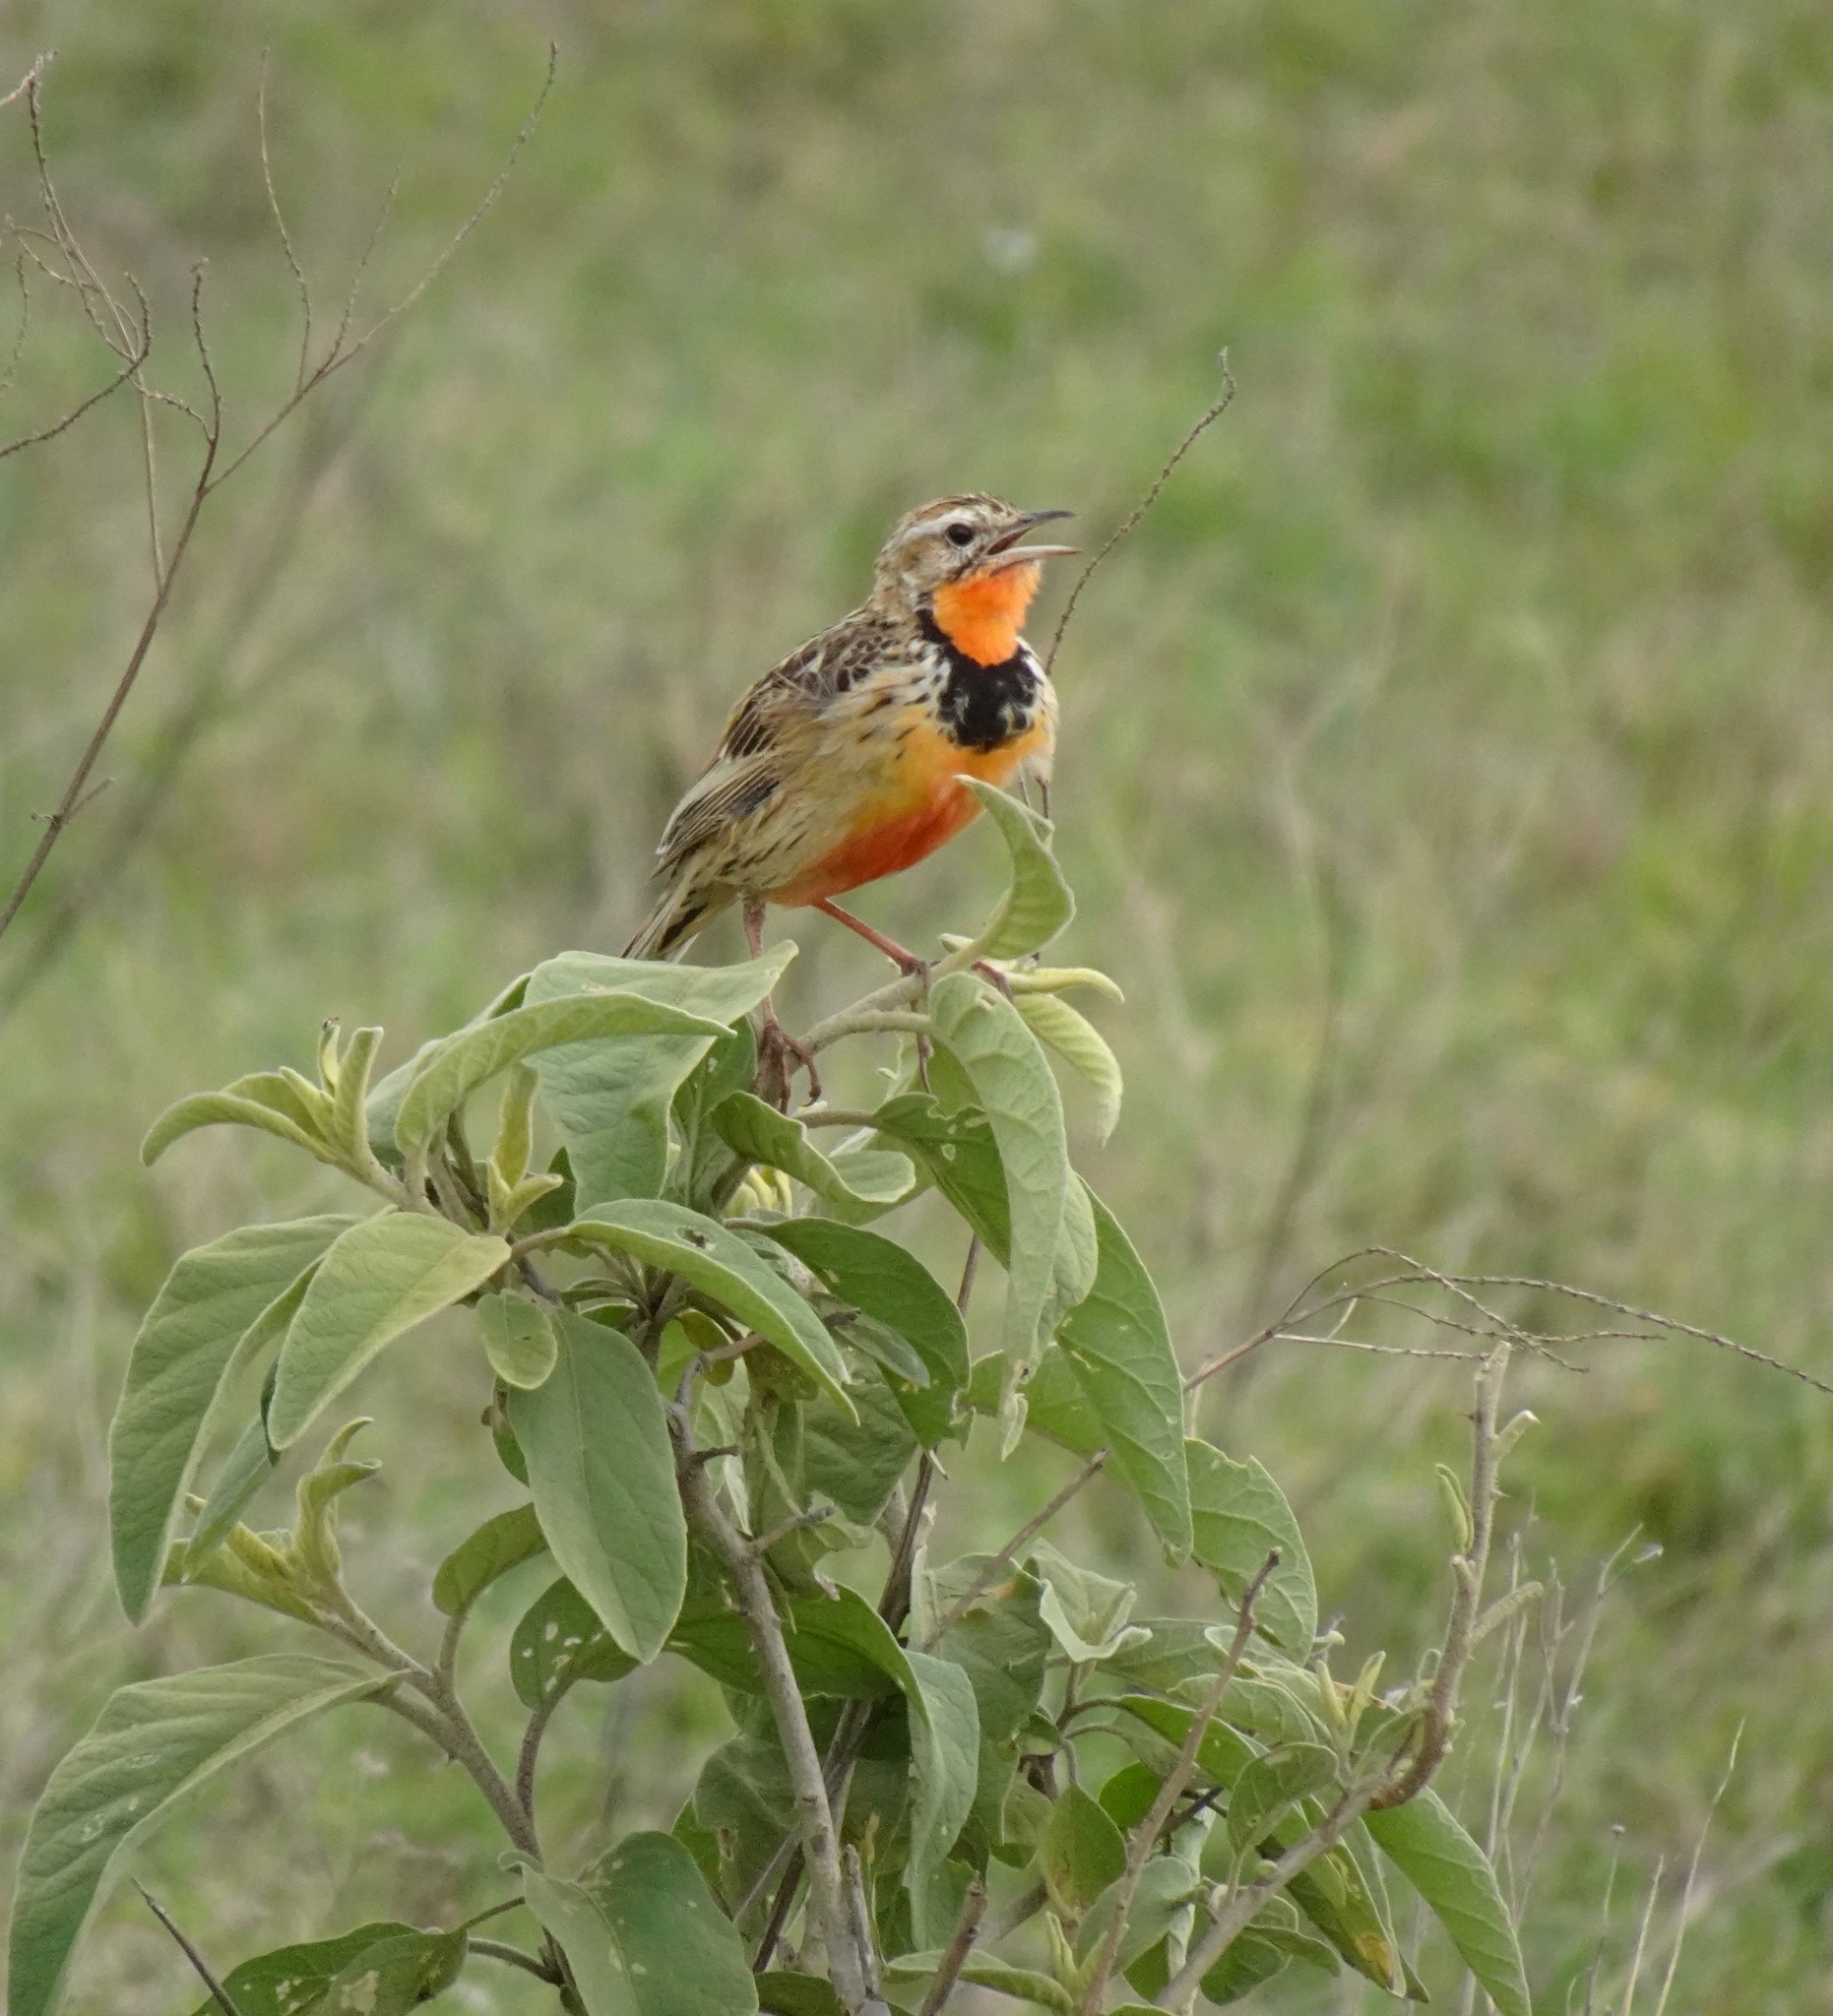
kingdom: Animalia
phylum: Chordata
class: Aves
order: Passeriformes
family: Motacillidae
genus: Macronyx
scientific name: Macronyx ameliae
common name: Rosy-throated longclaw
